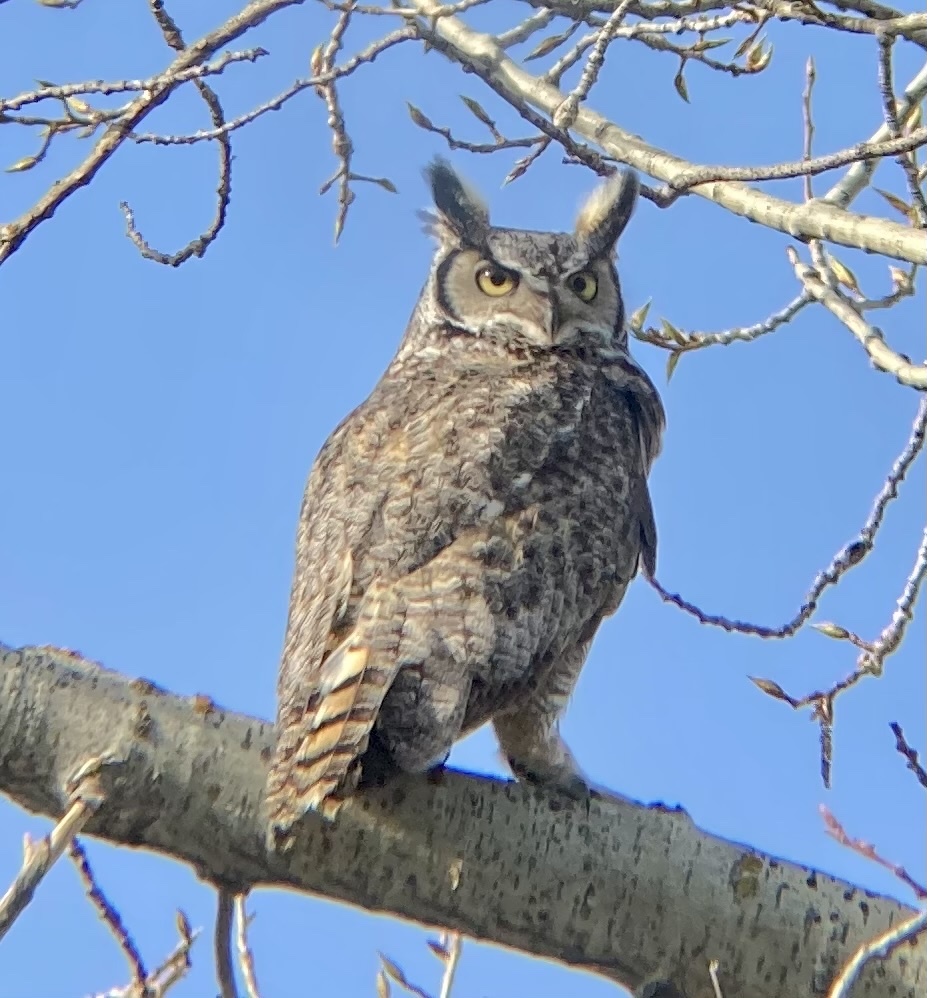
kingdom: Animalia
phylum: Chordata
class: Aves
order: Strigiformes
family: Strigidae
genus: Bubo
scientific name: Bubo virginianus
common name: Great horned owl
